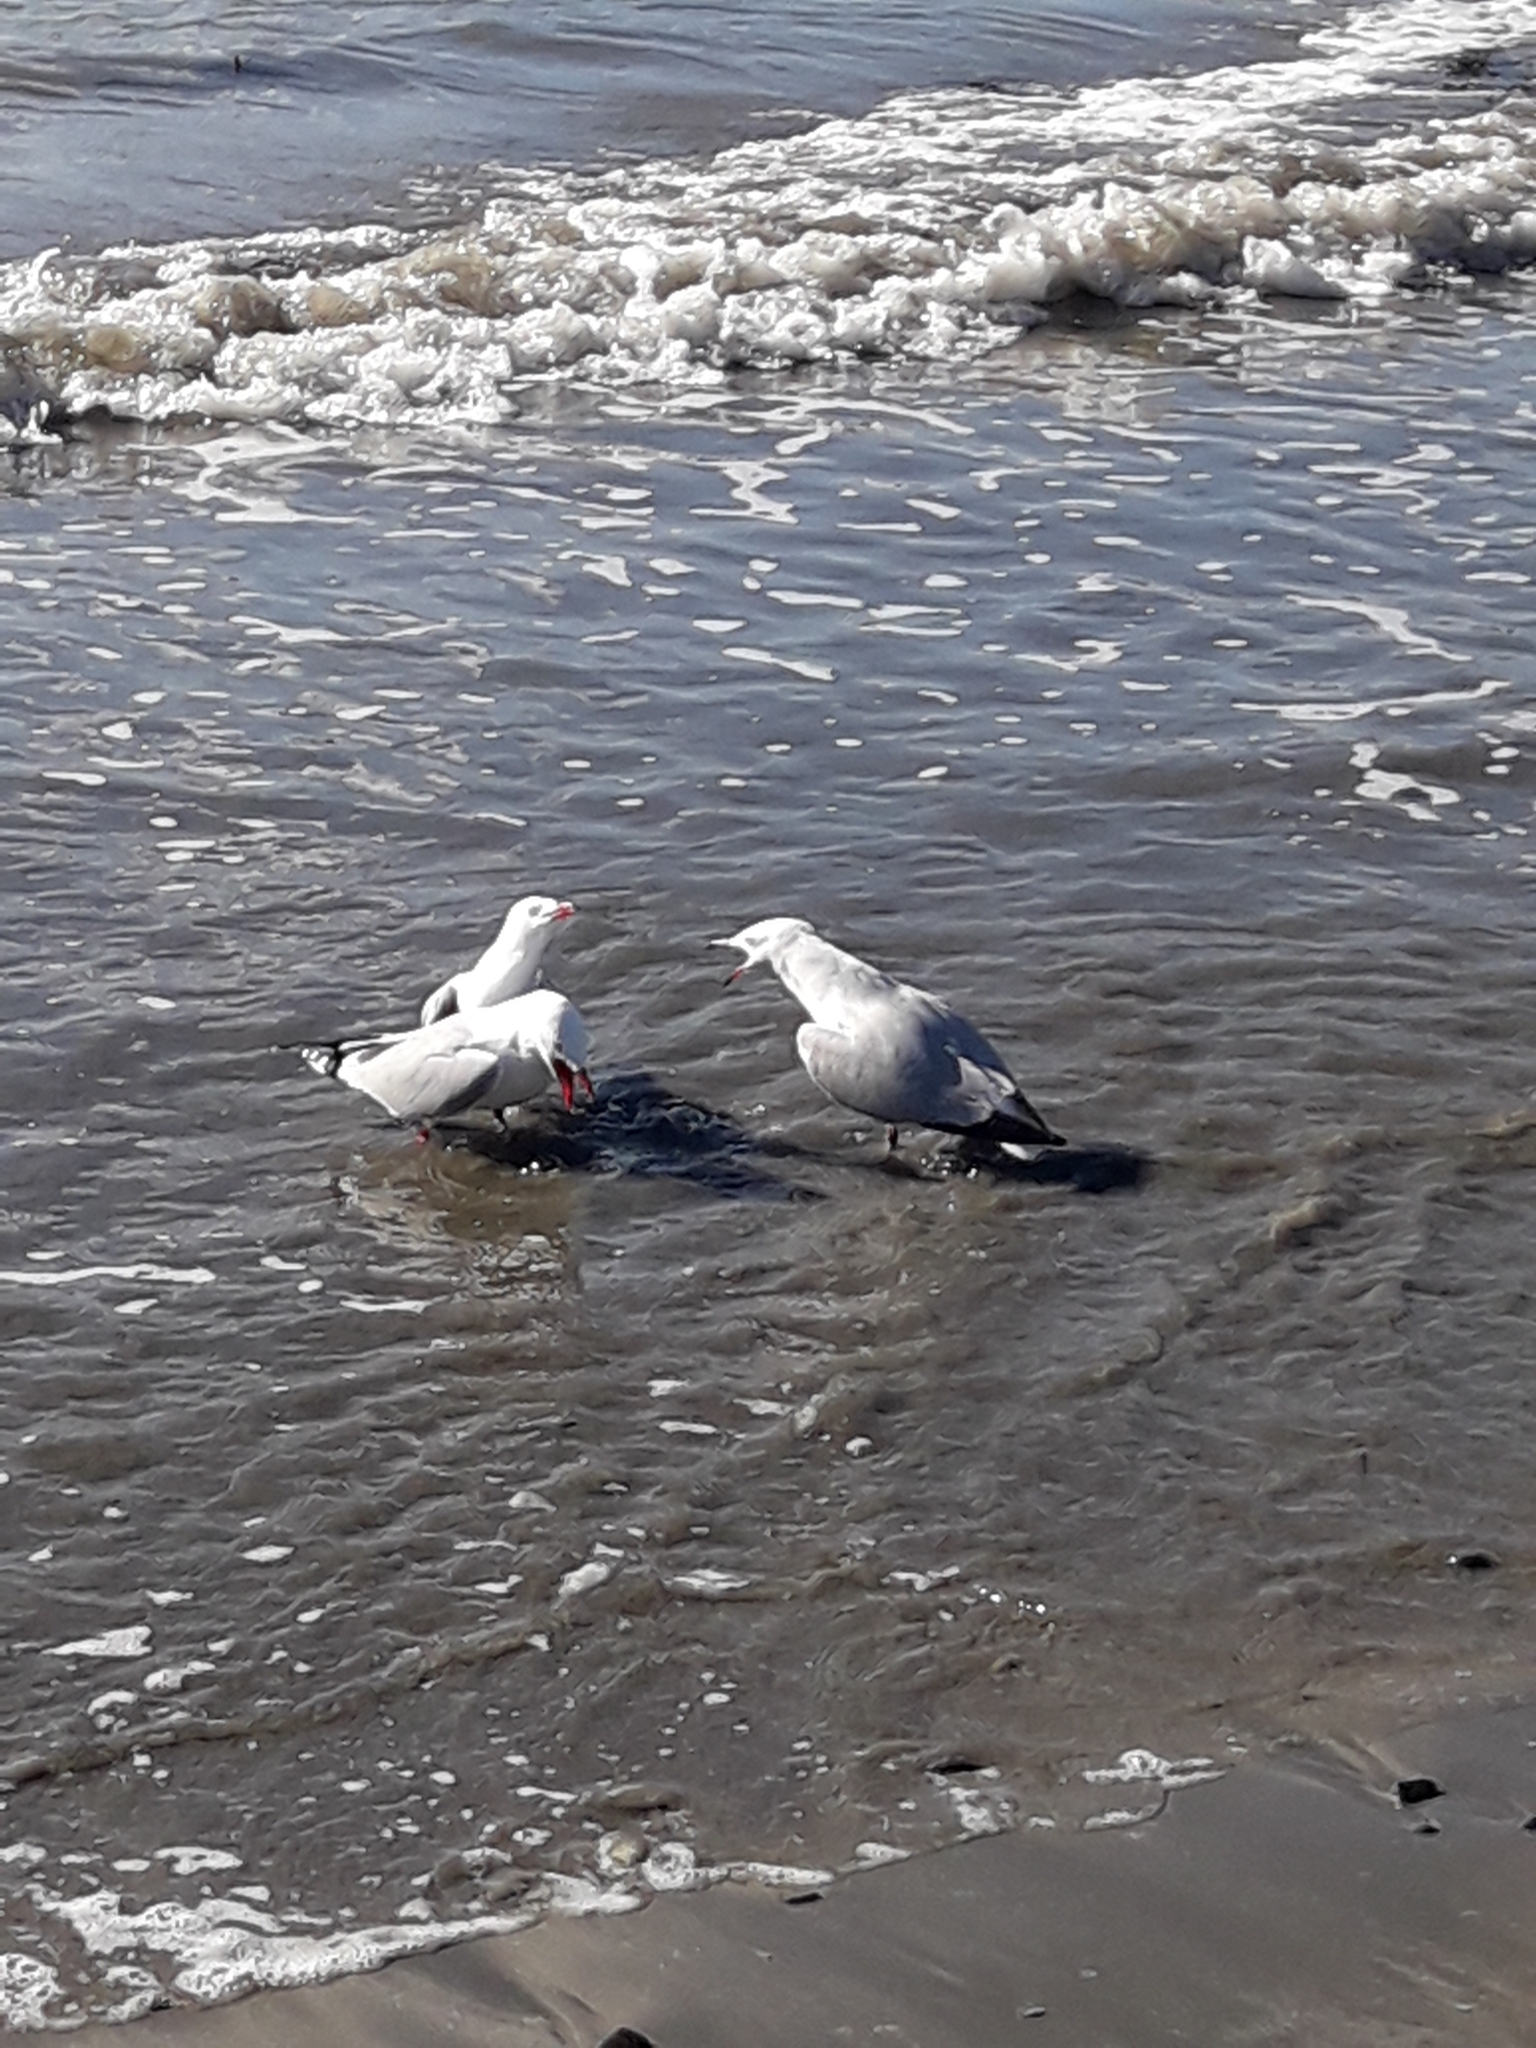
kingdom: Animalia
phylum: Chordata
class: Aves
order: Charadriiformes
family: Laridae
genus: Chroicocephalus
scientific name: Chroicocephalus novaehollandiae
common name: Silver gull
